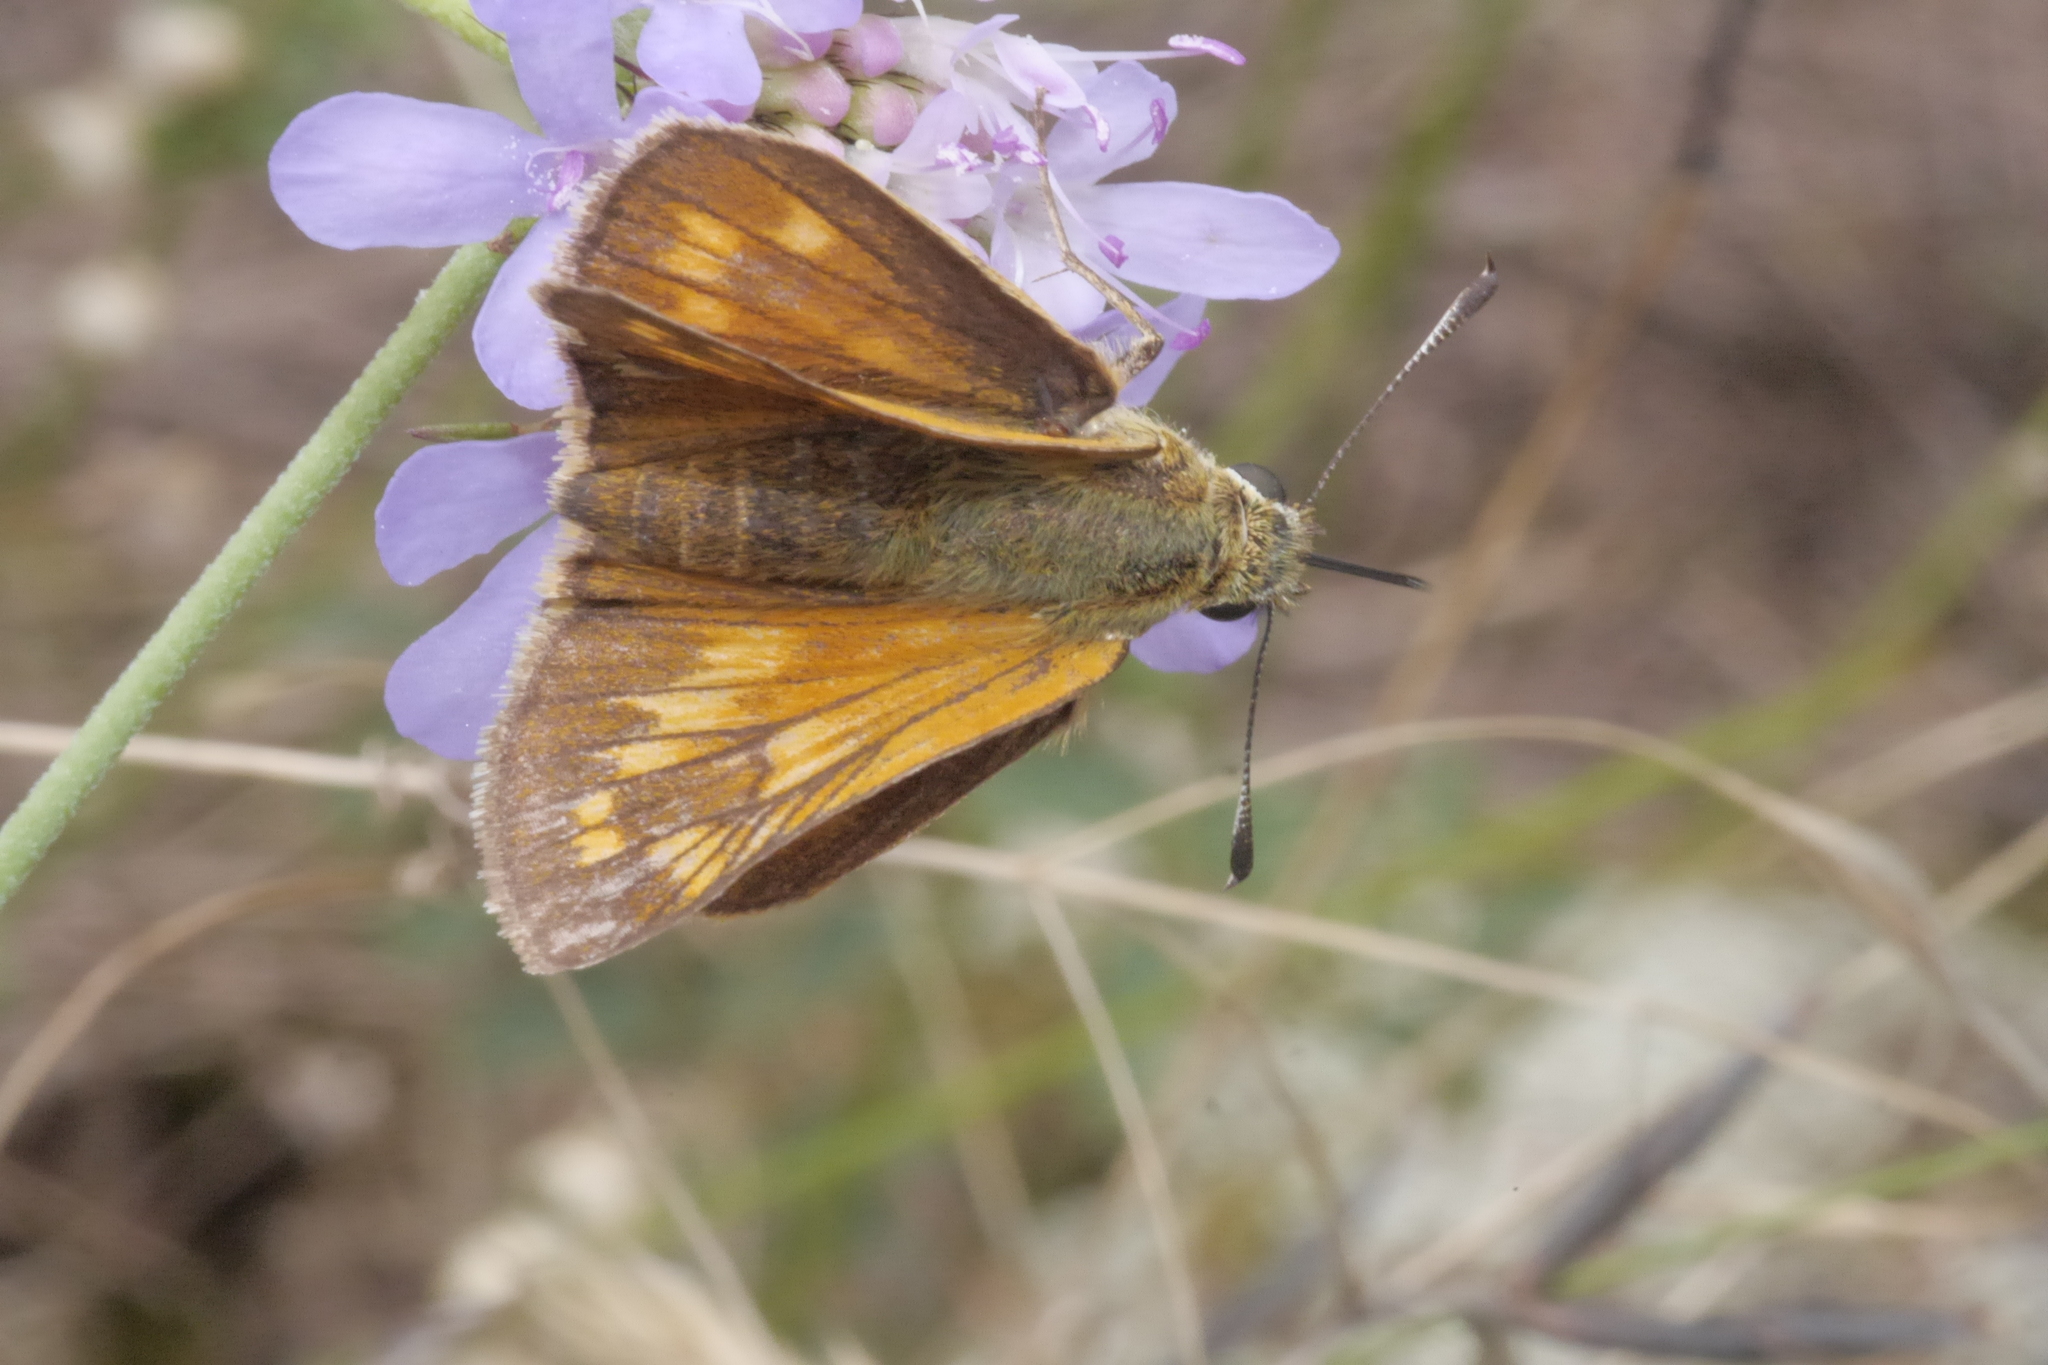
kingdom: Animalia
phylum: Arthropoda
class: Insecta
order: Lepidoptera
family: Hesperiidae
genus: Ochlodes
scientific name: Ochlodes venata
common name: Large skipper
